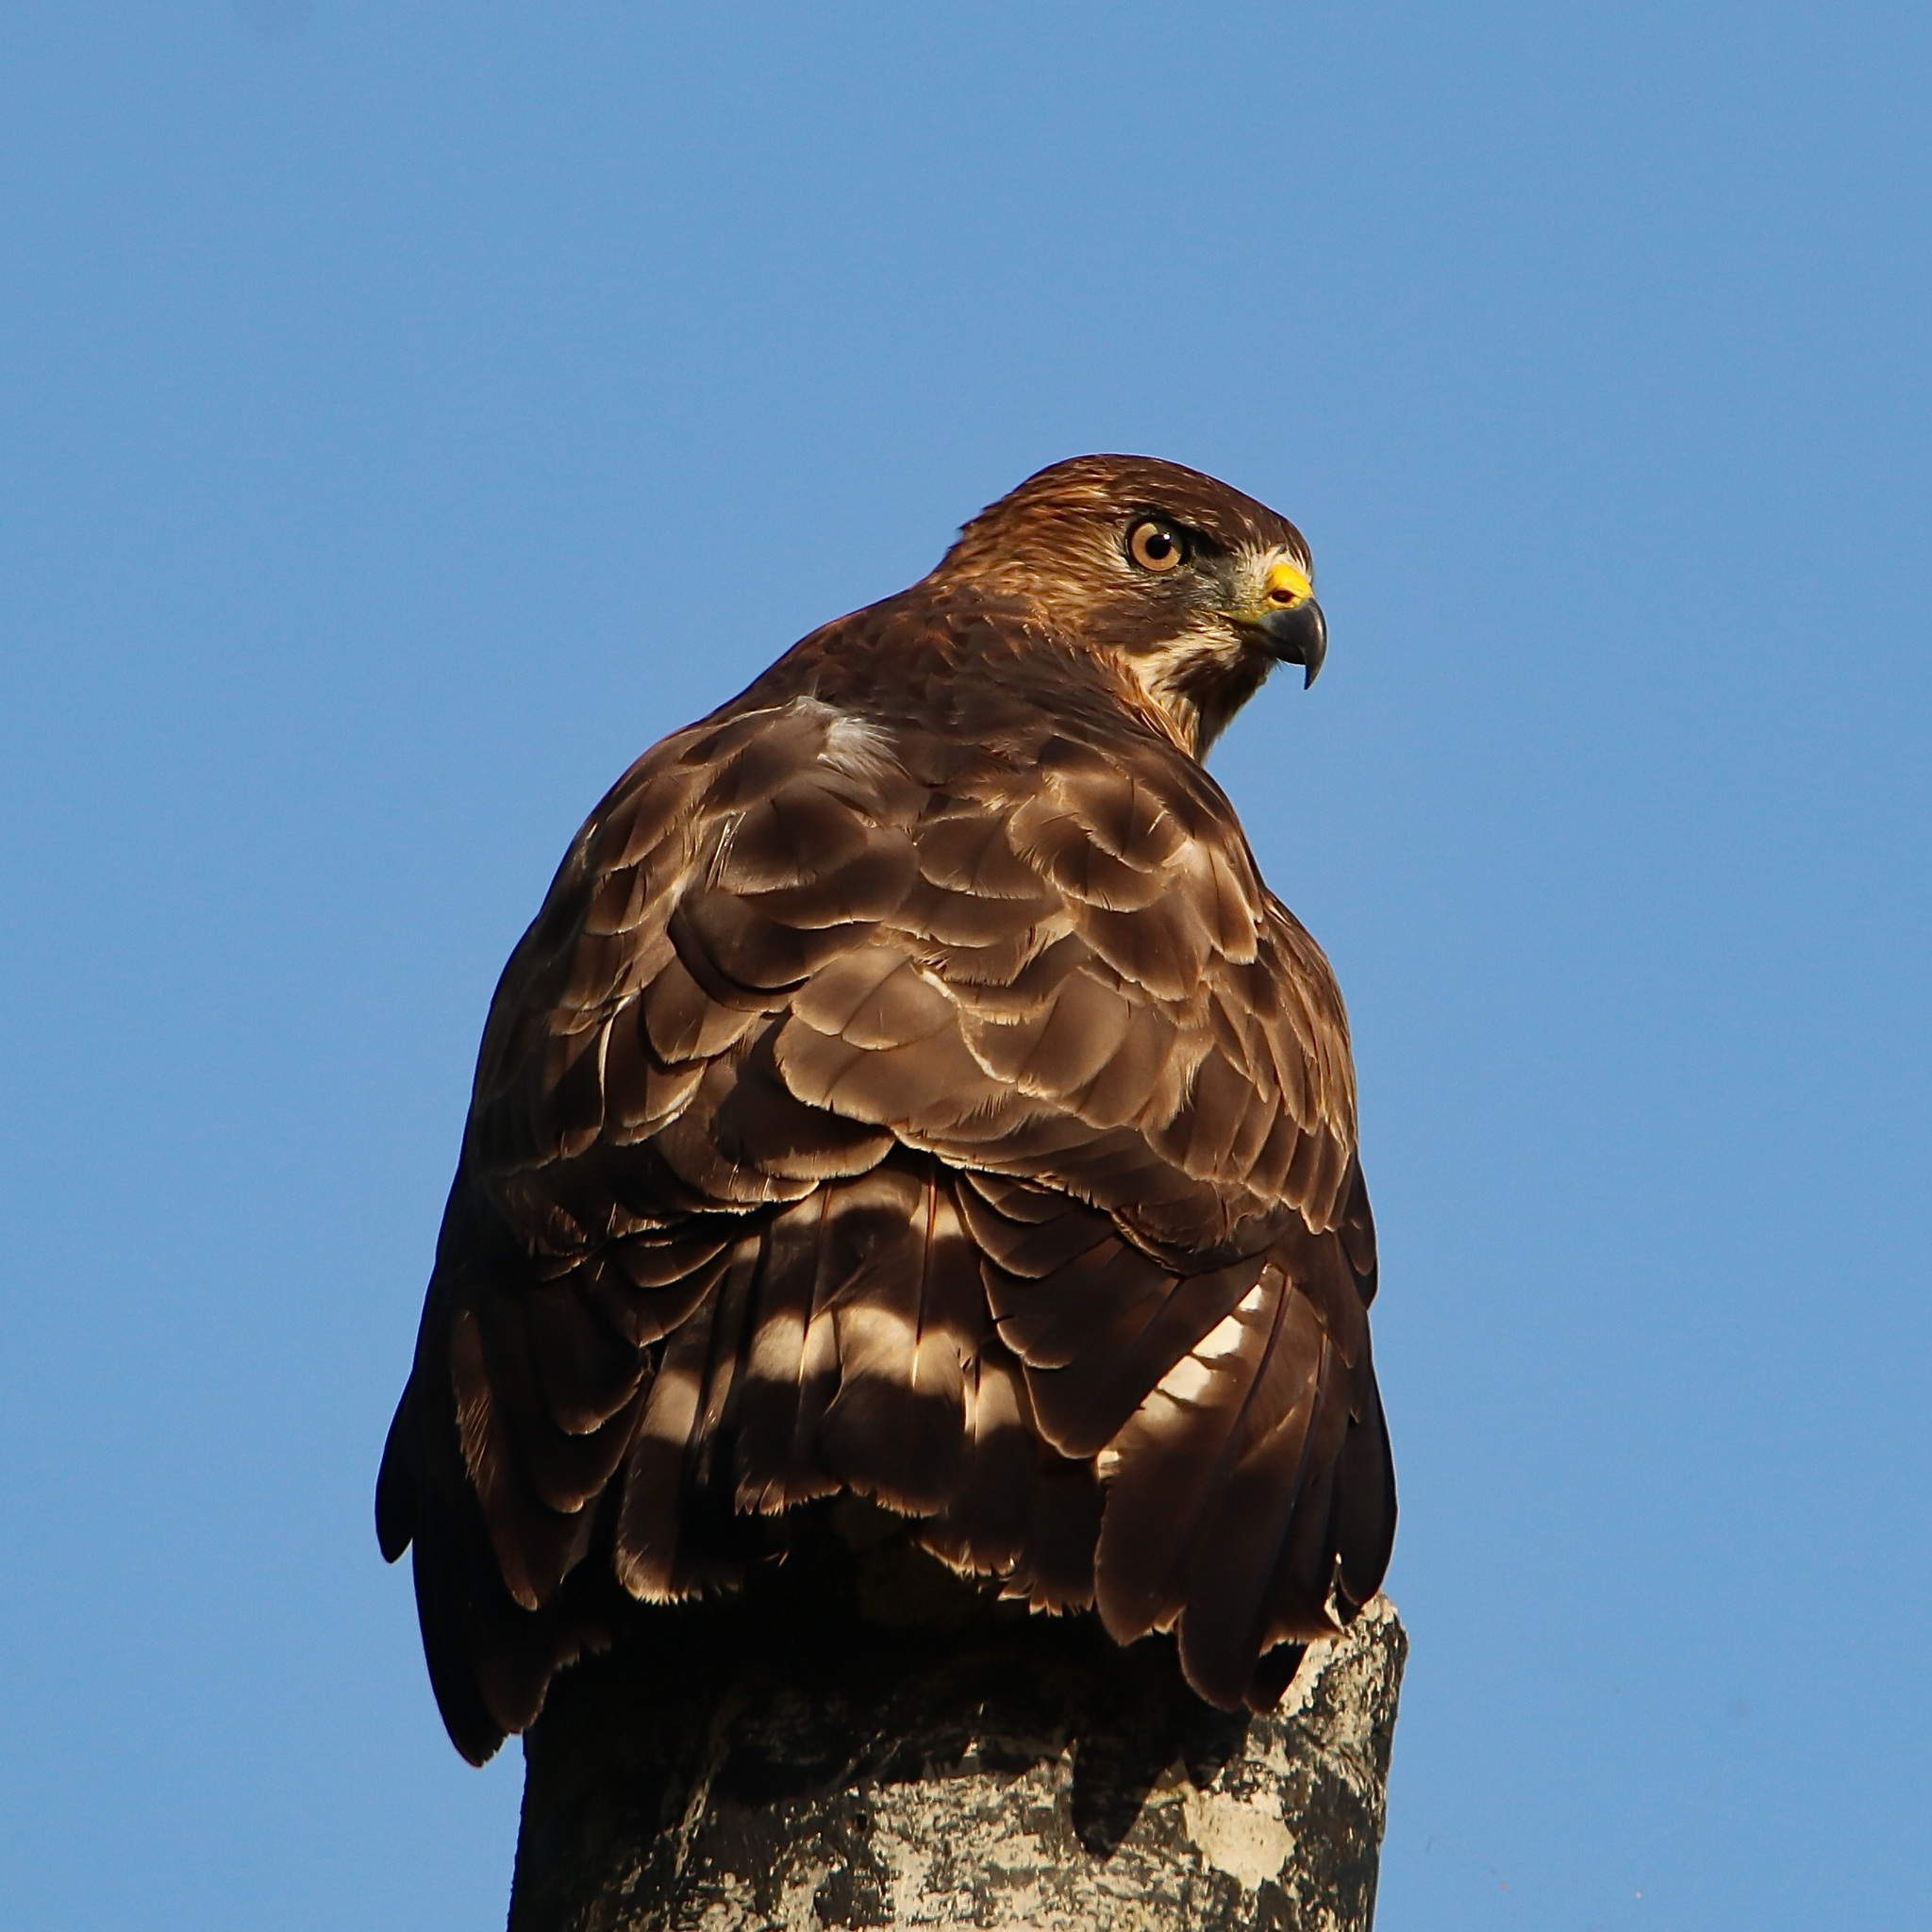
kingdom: Animalia
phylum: Chordata
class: Aves
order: Accipitriformes
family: Accipitridae
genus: Buteo
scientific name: Buteo platypterus
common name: Broad-winged hawk
